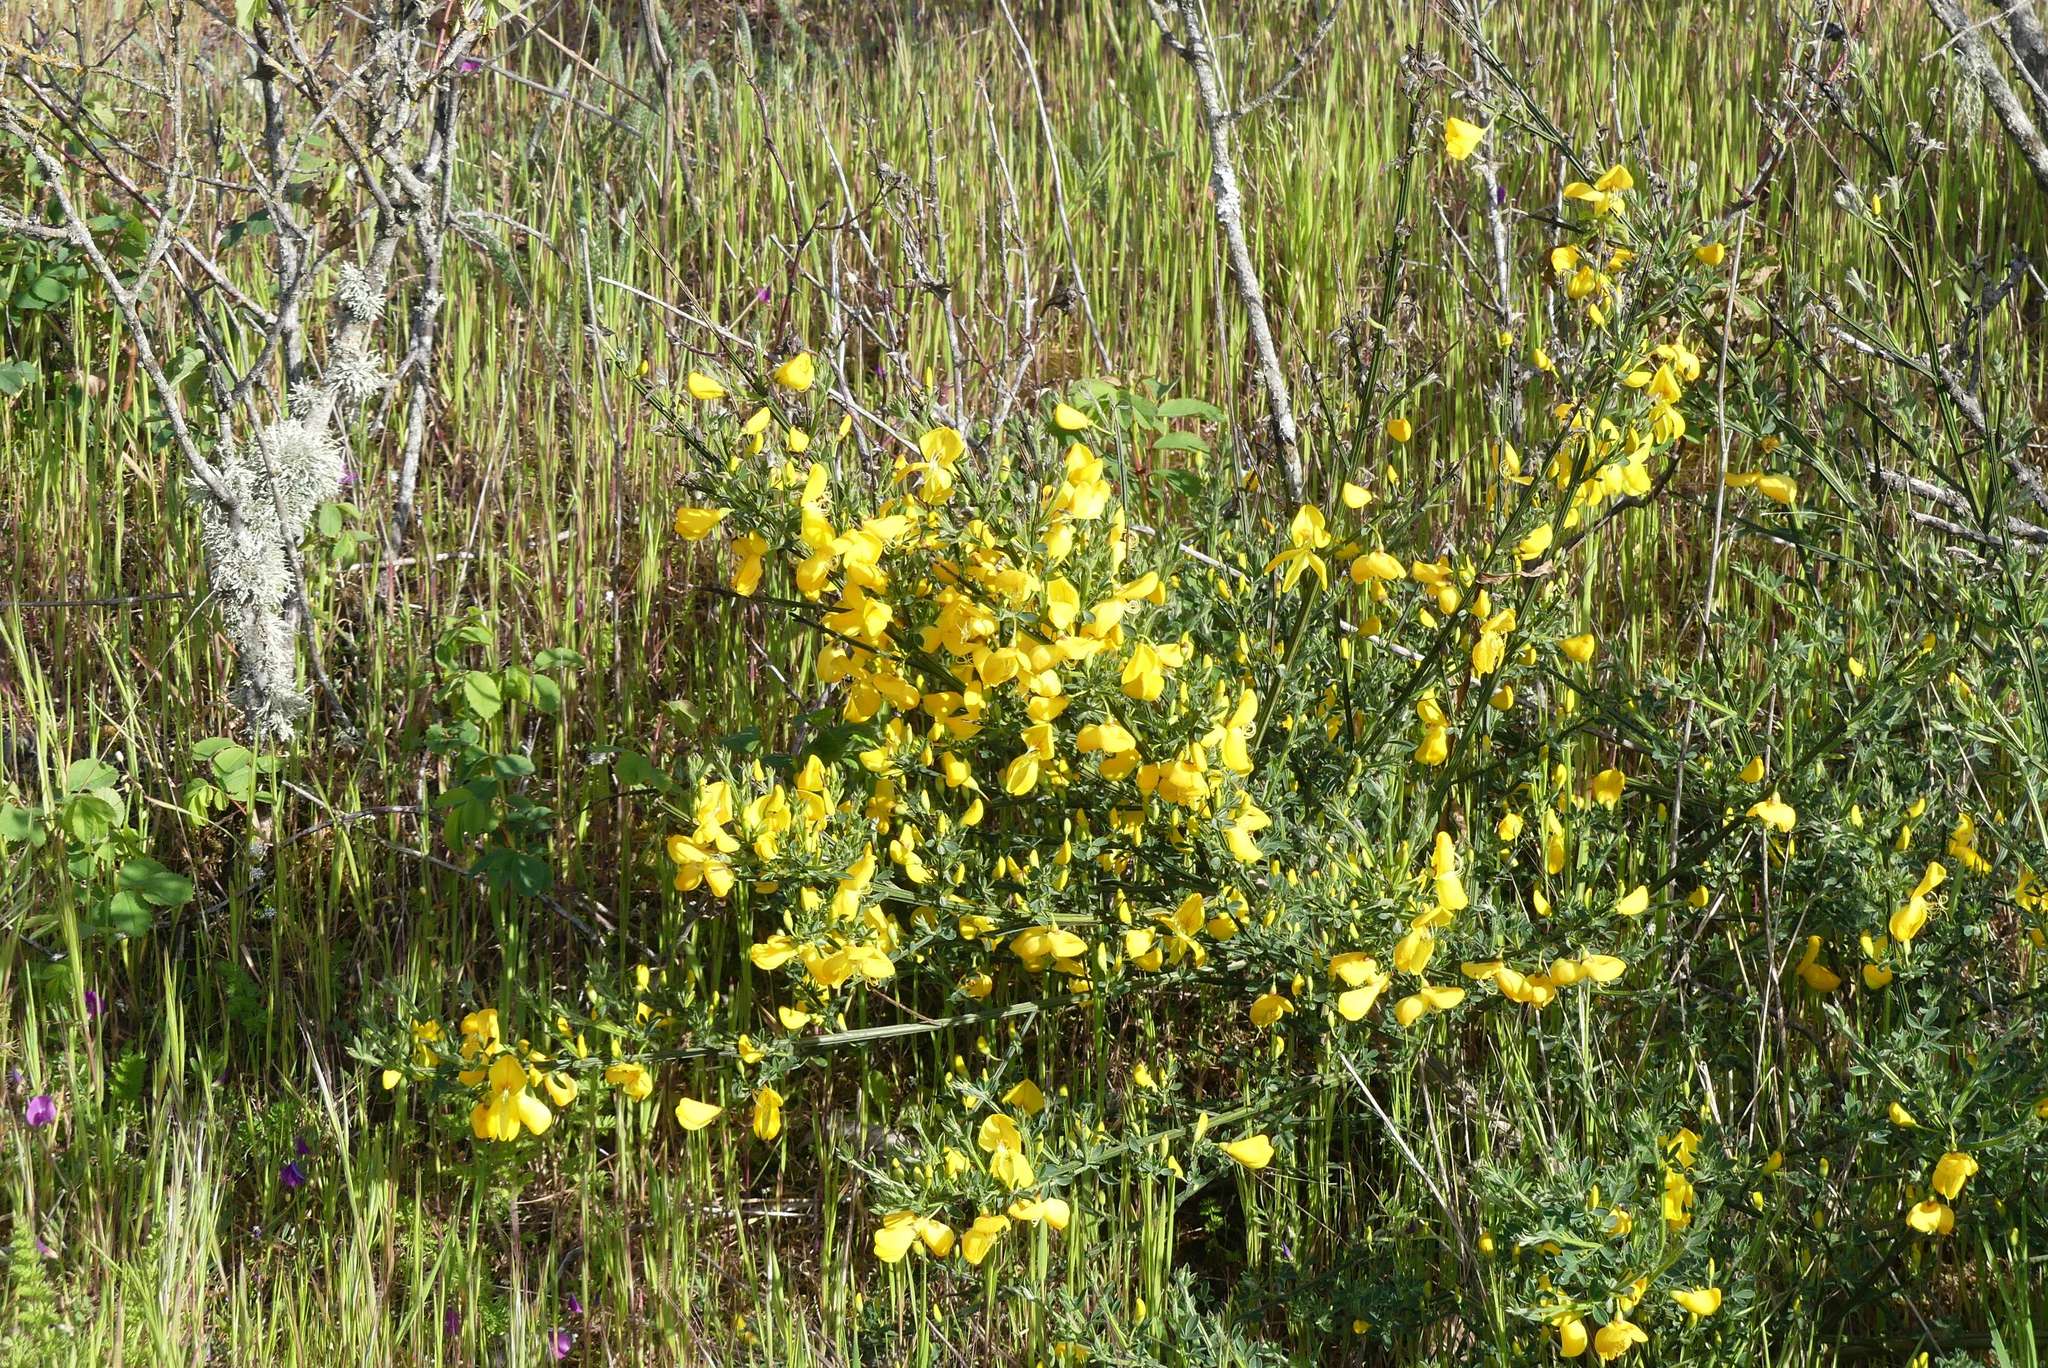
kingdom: Plantae
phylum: Tracheophyta
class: Magnoliopsida
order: Fabales
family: Fabaceae
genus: Cytisus
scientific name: Cytisus scoparius
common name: Scotch broom
